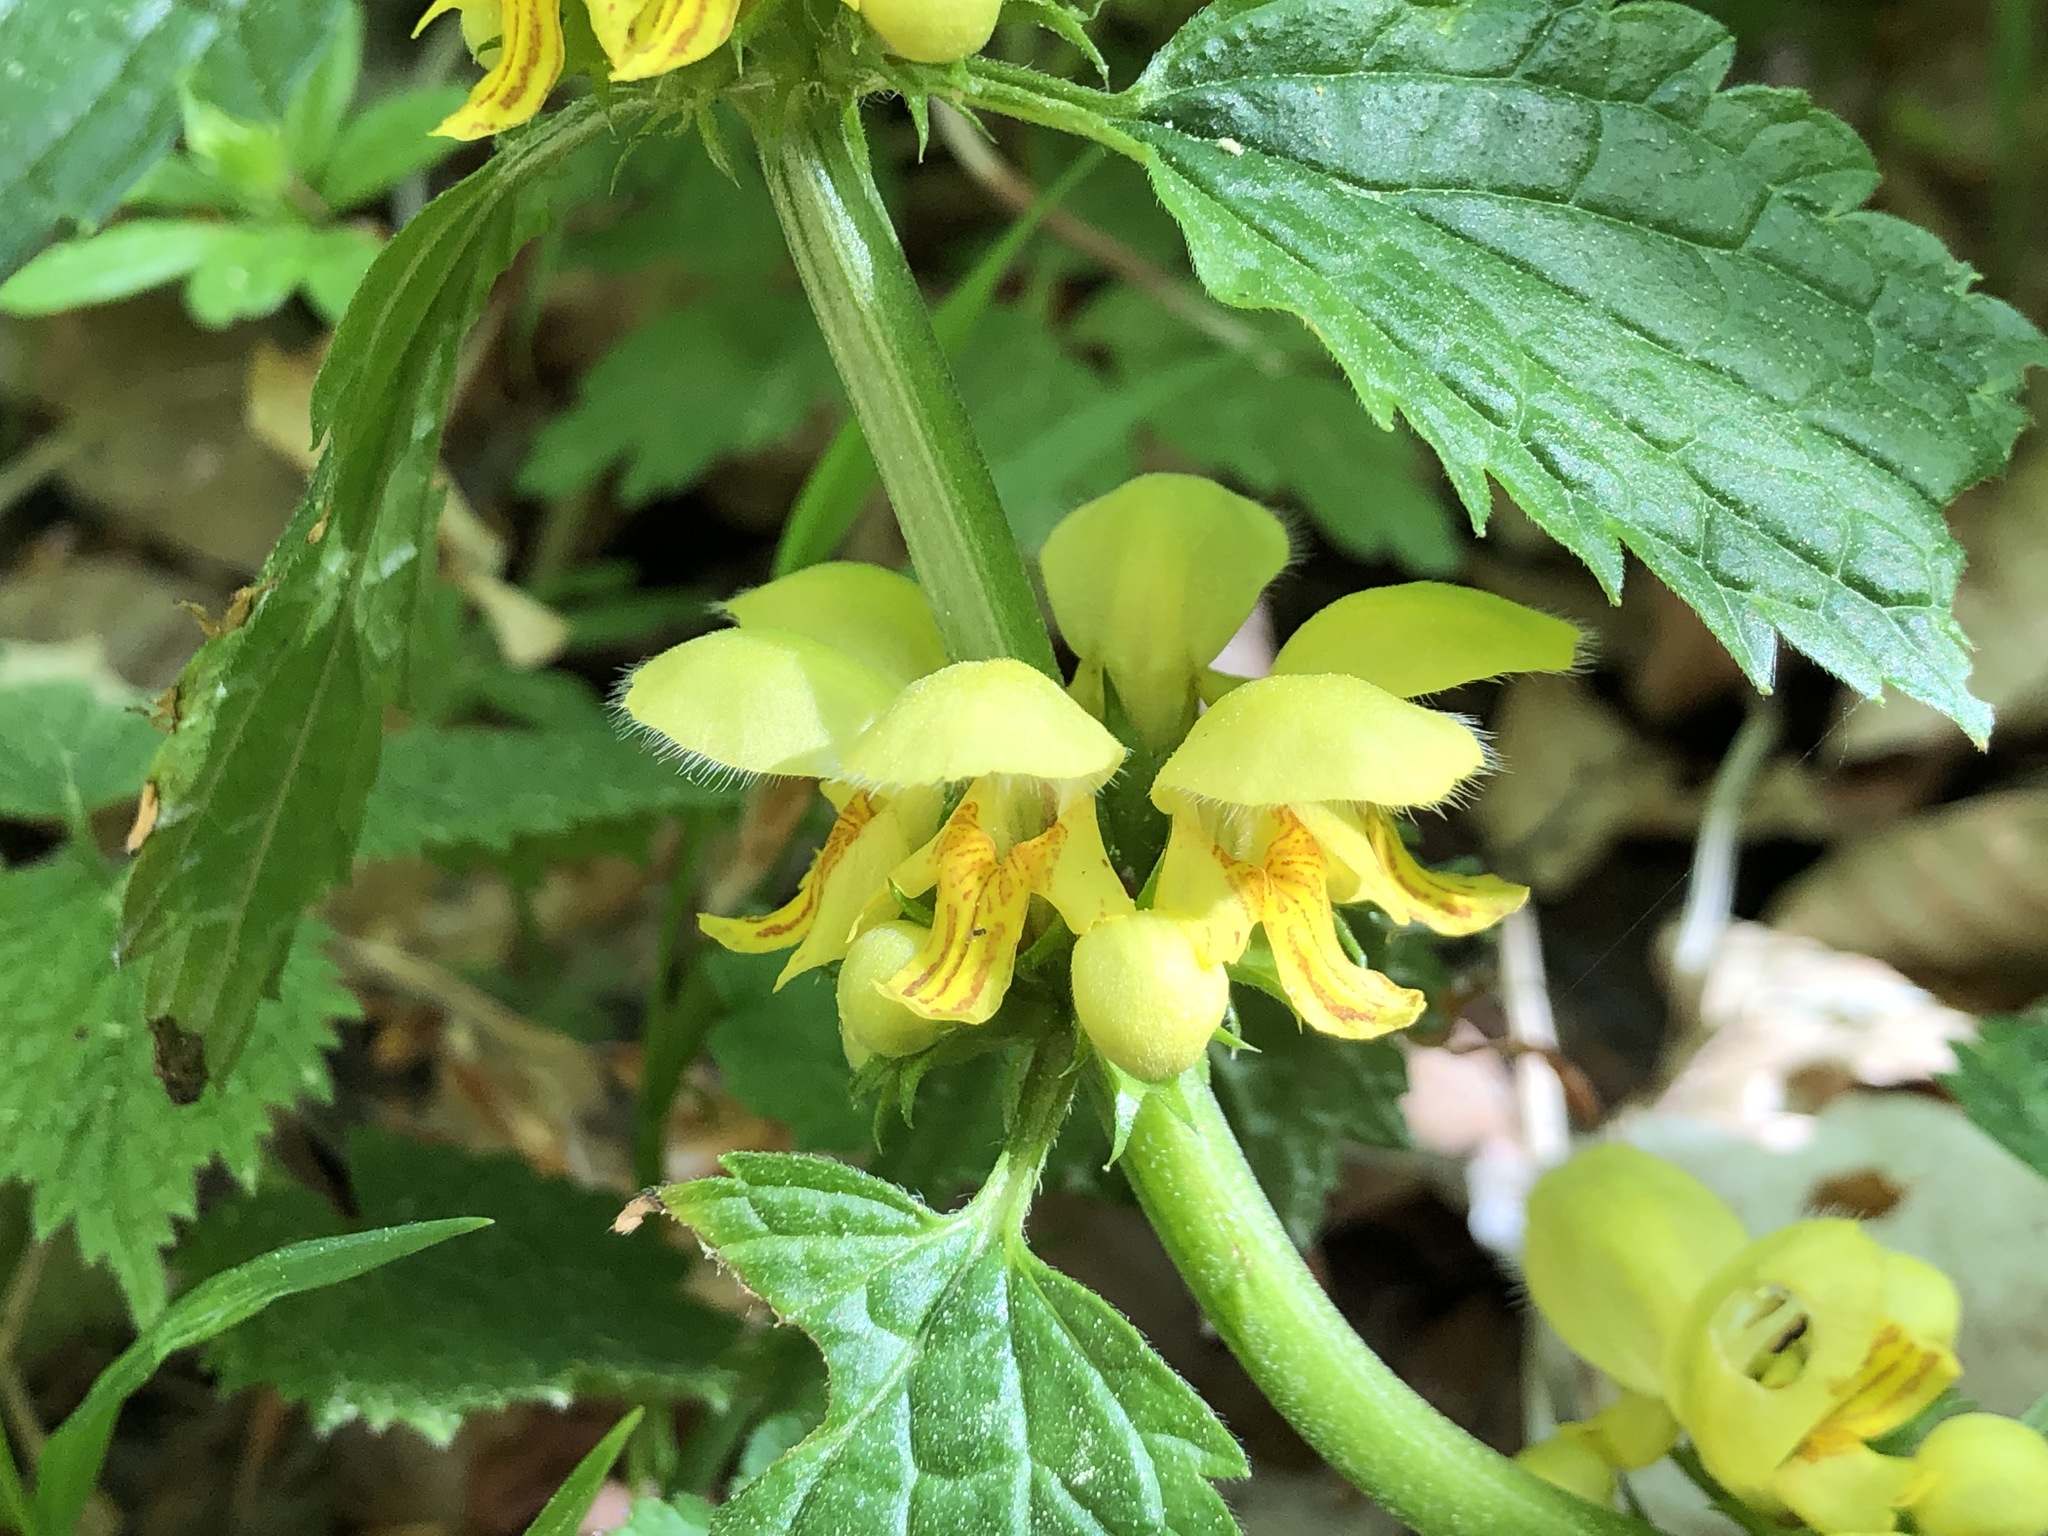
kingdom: Plantae
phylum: Tracheophyta
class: Magnoliopsida
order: Lamiales
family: Lamiaceae
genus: Lamium
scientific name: Lamium galeobdolon
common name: Yellow archangel
